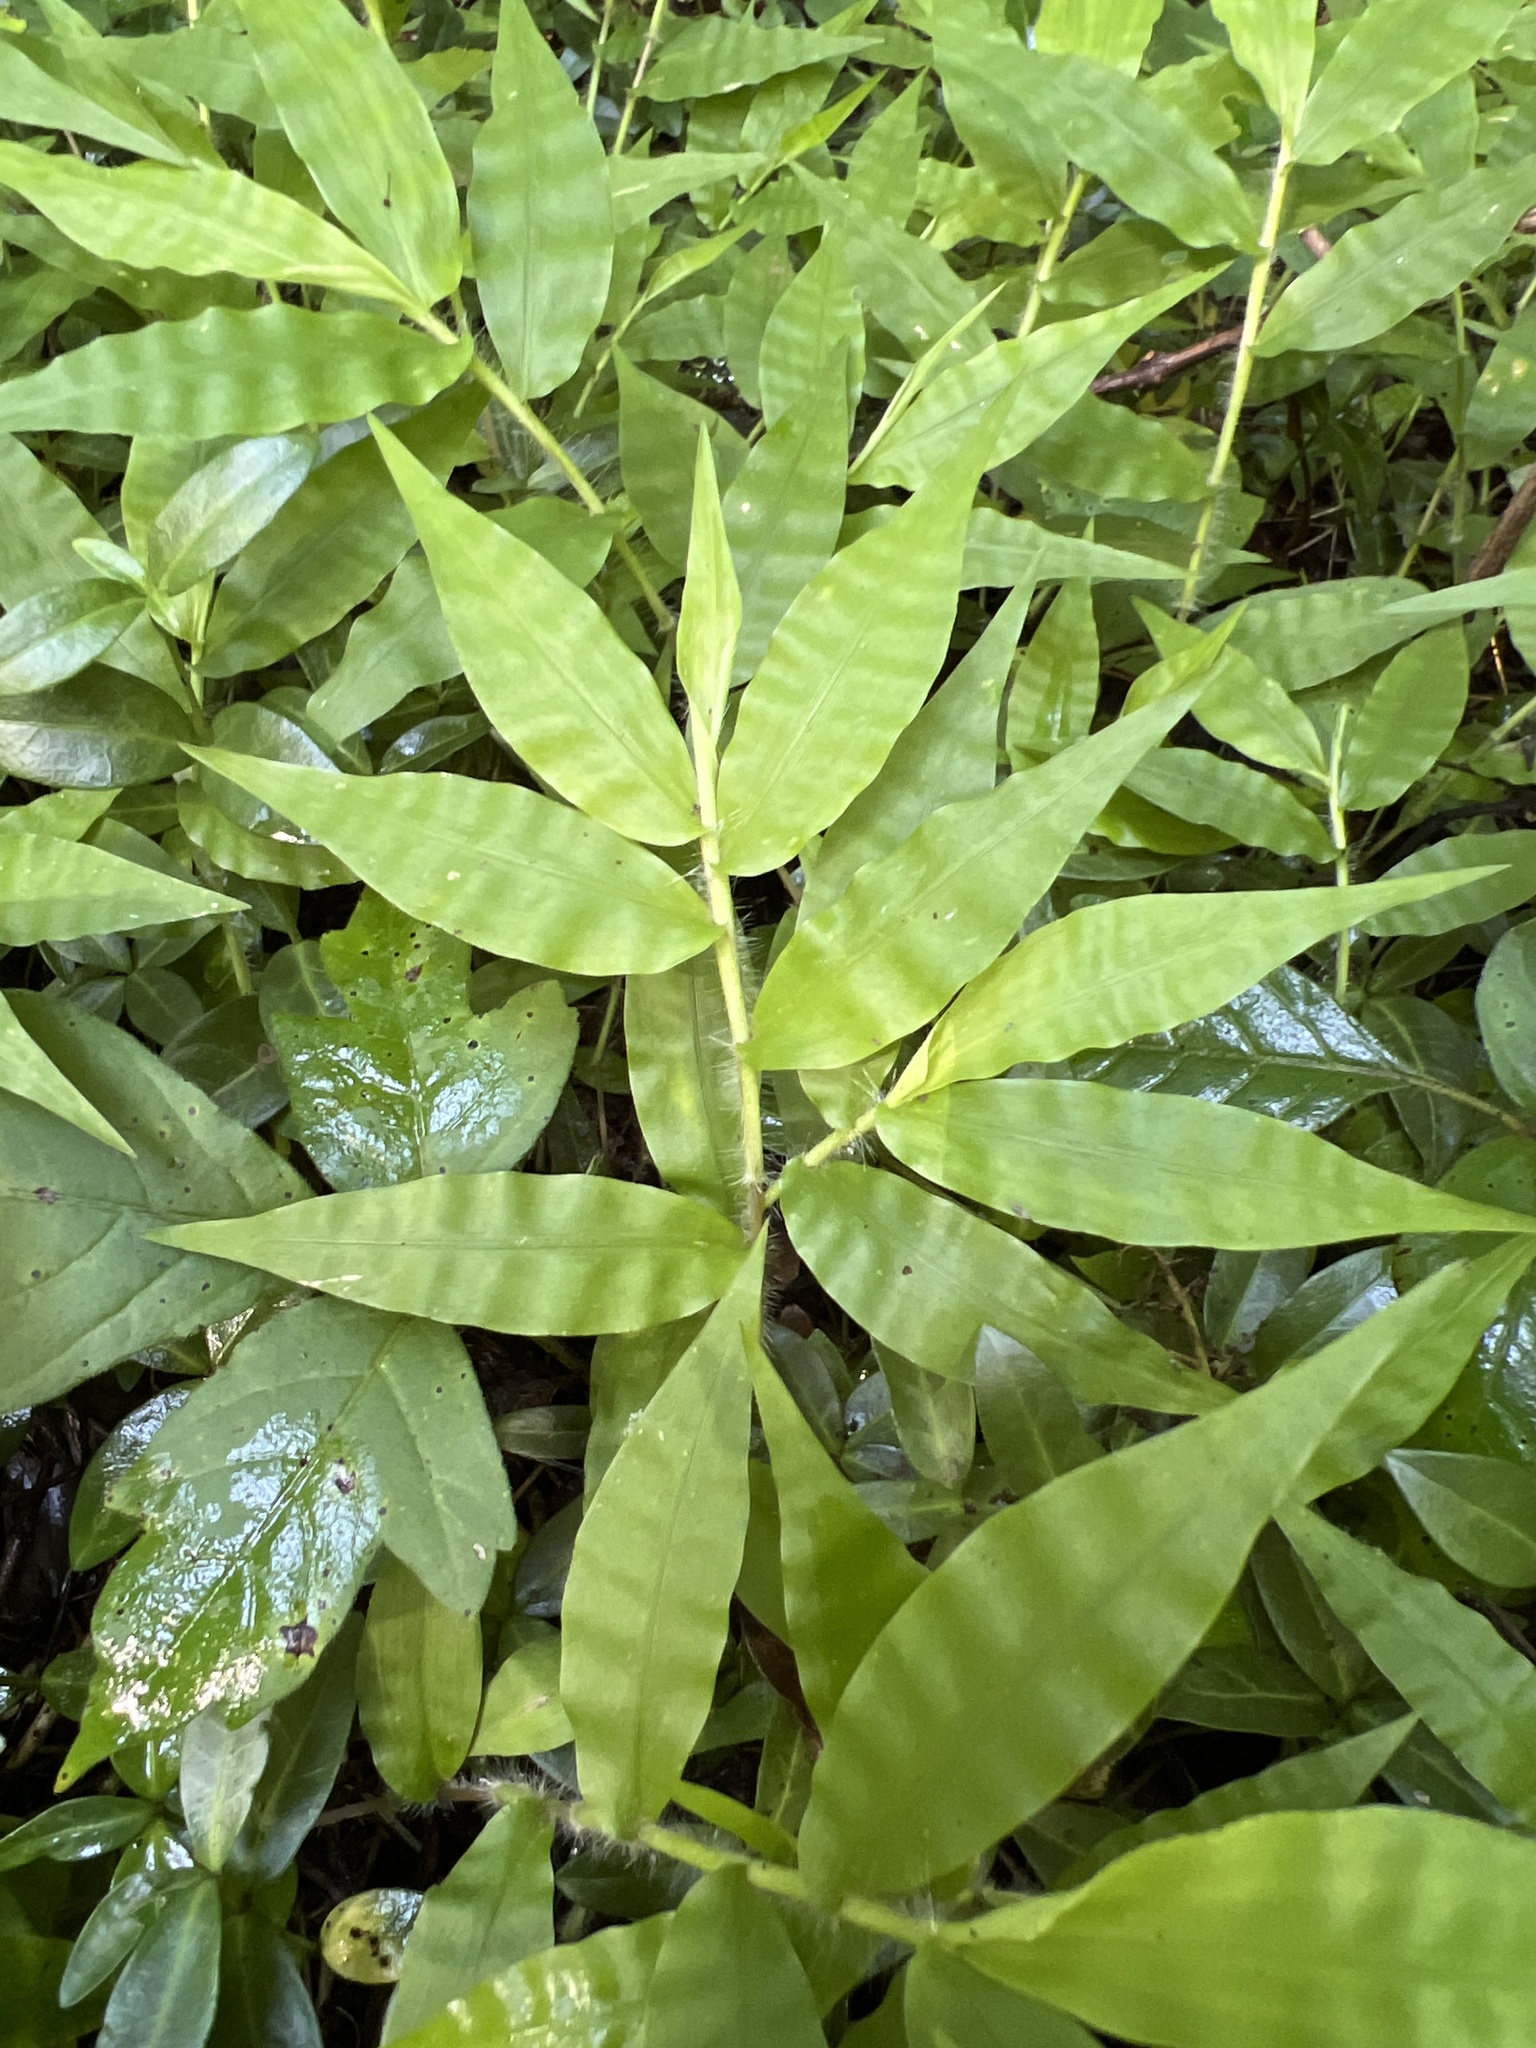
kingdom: Plantae
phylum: Tracheophyta
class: Liliopsida
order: Poales
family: Poaceae
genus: Oplismenus
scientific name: Oplismenus undulatifolius
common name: Wavyleaf basketgrass
